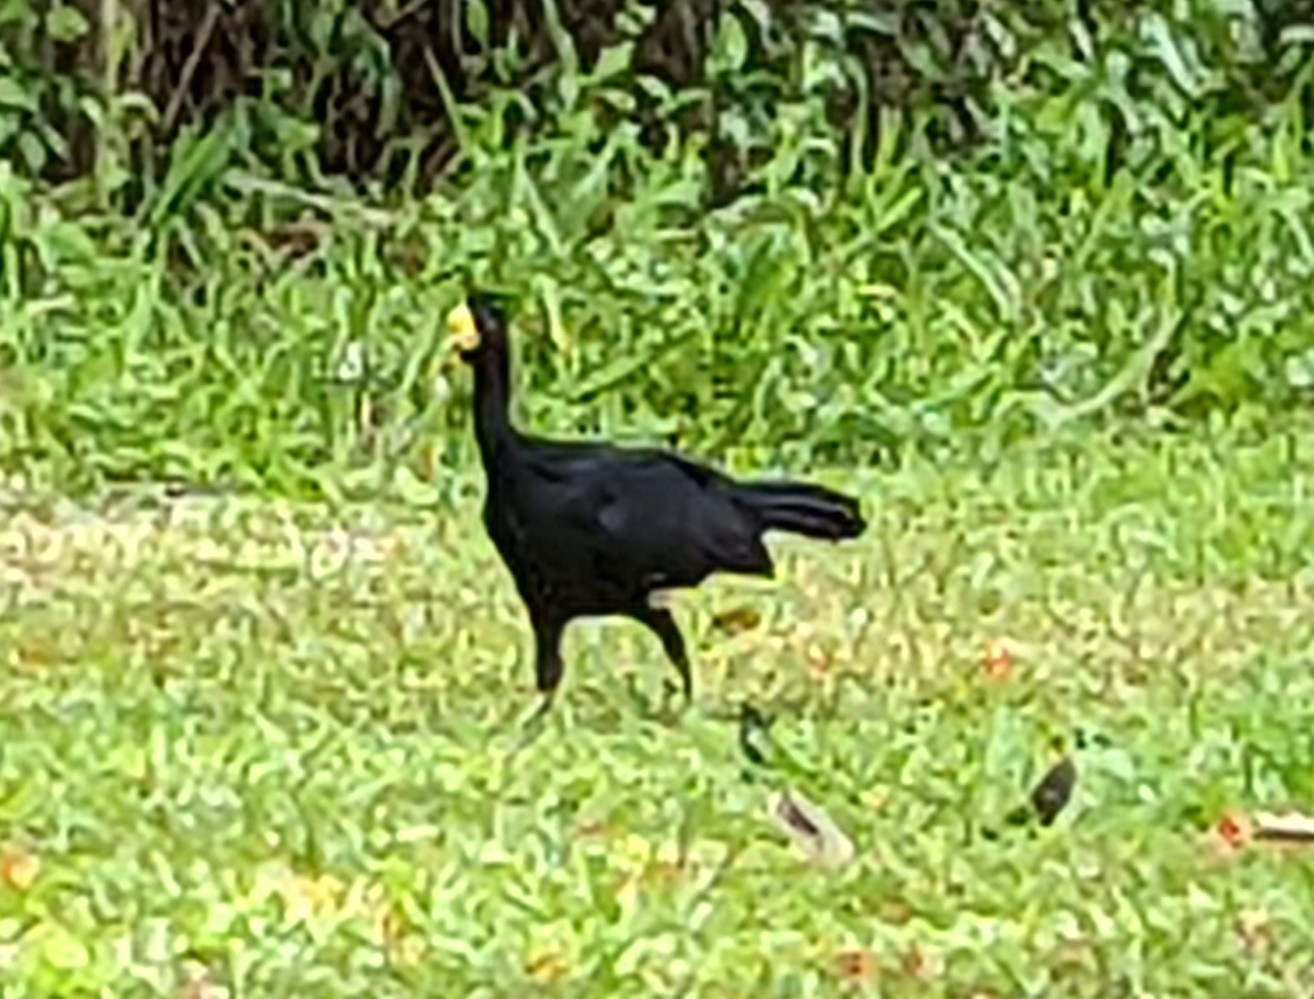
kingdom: Animalia
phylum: Chordata
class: Aves
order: Galliformes
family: Cracidae
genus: Crax
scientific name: Crax rubra
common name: Great curassow
